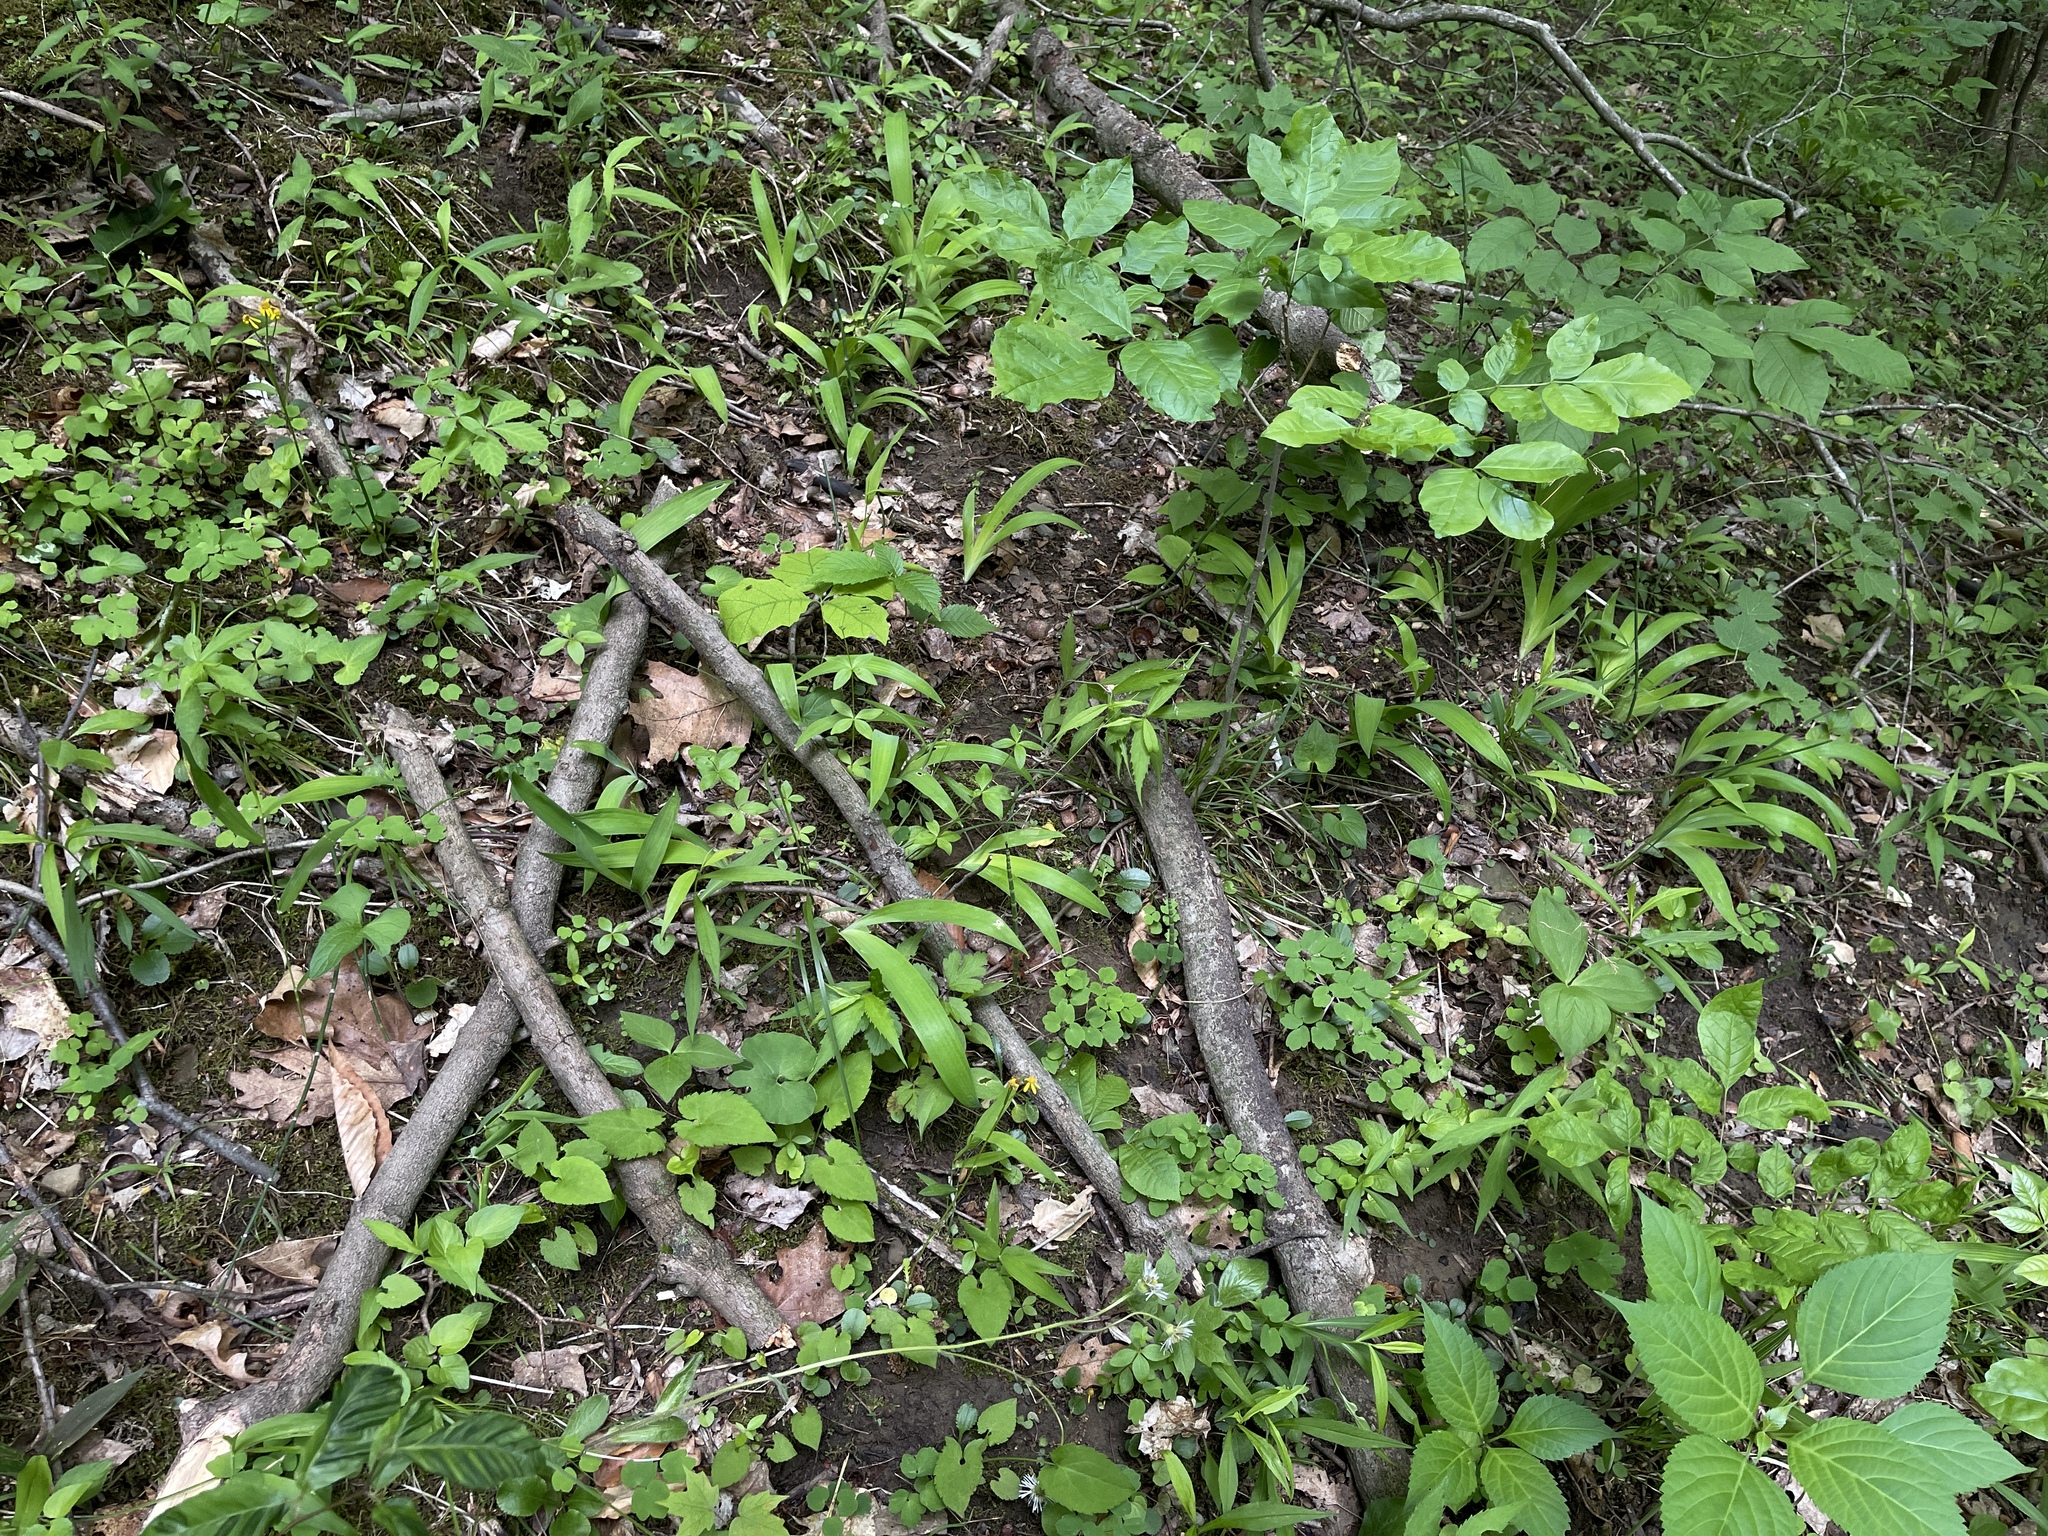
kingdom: Plantae
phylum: Tracheophyta
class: Liliopsida
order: Asparagales
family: Iridaceae
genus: Iris
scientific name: Iris cristata
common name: Crested iris
